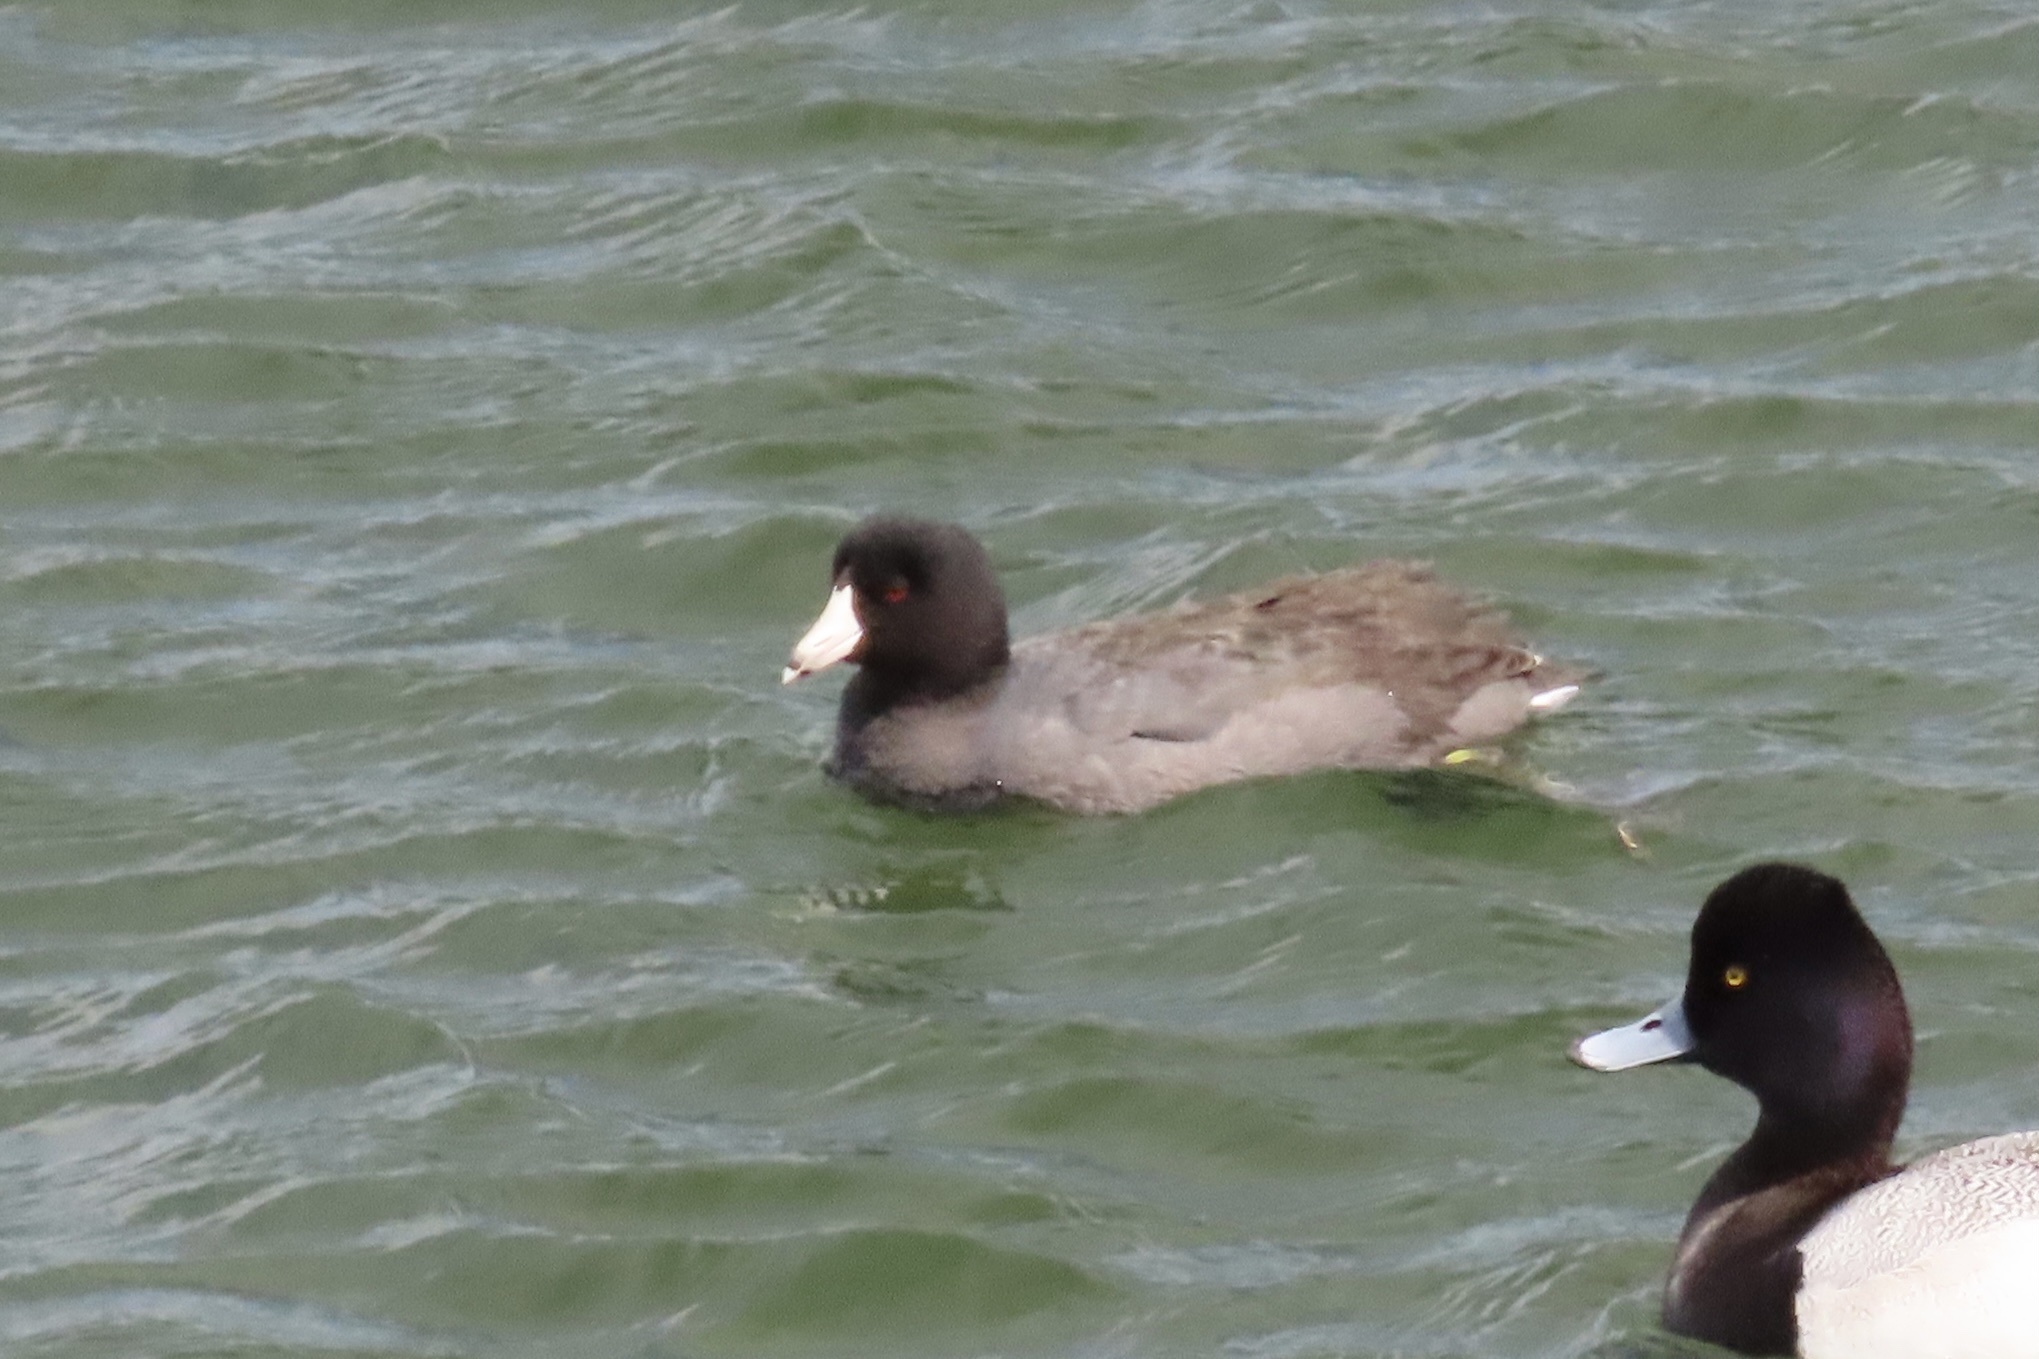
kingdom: Animalia
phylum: Chordata
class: Aves
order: Gruiformes
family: Rallidae
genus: Fulica
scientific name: Fulica americana
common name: American coot
